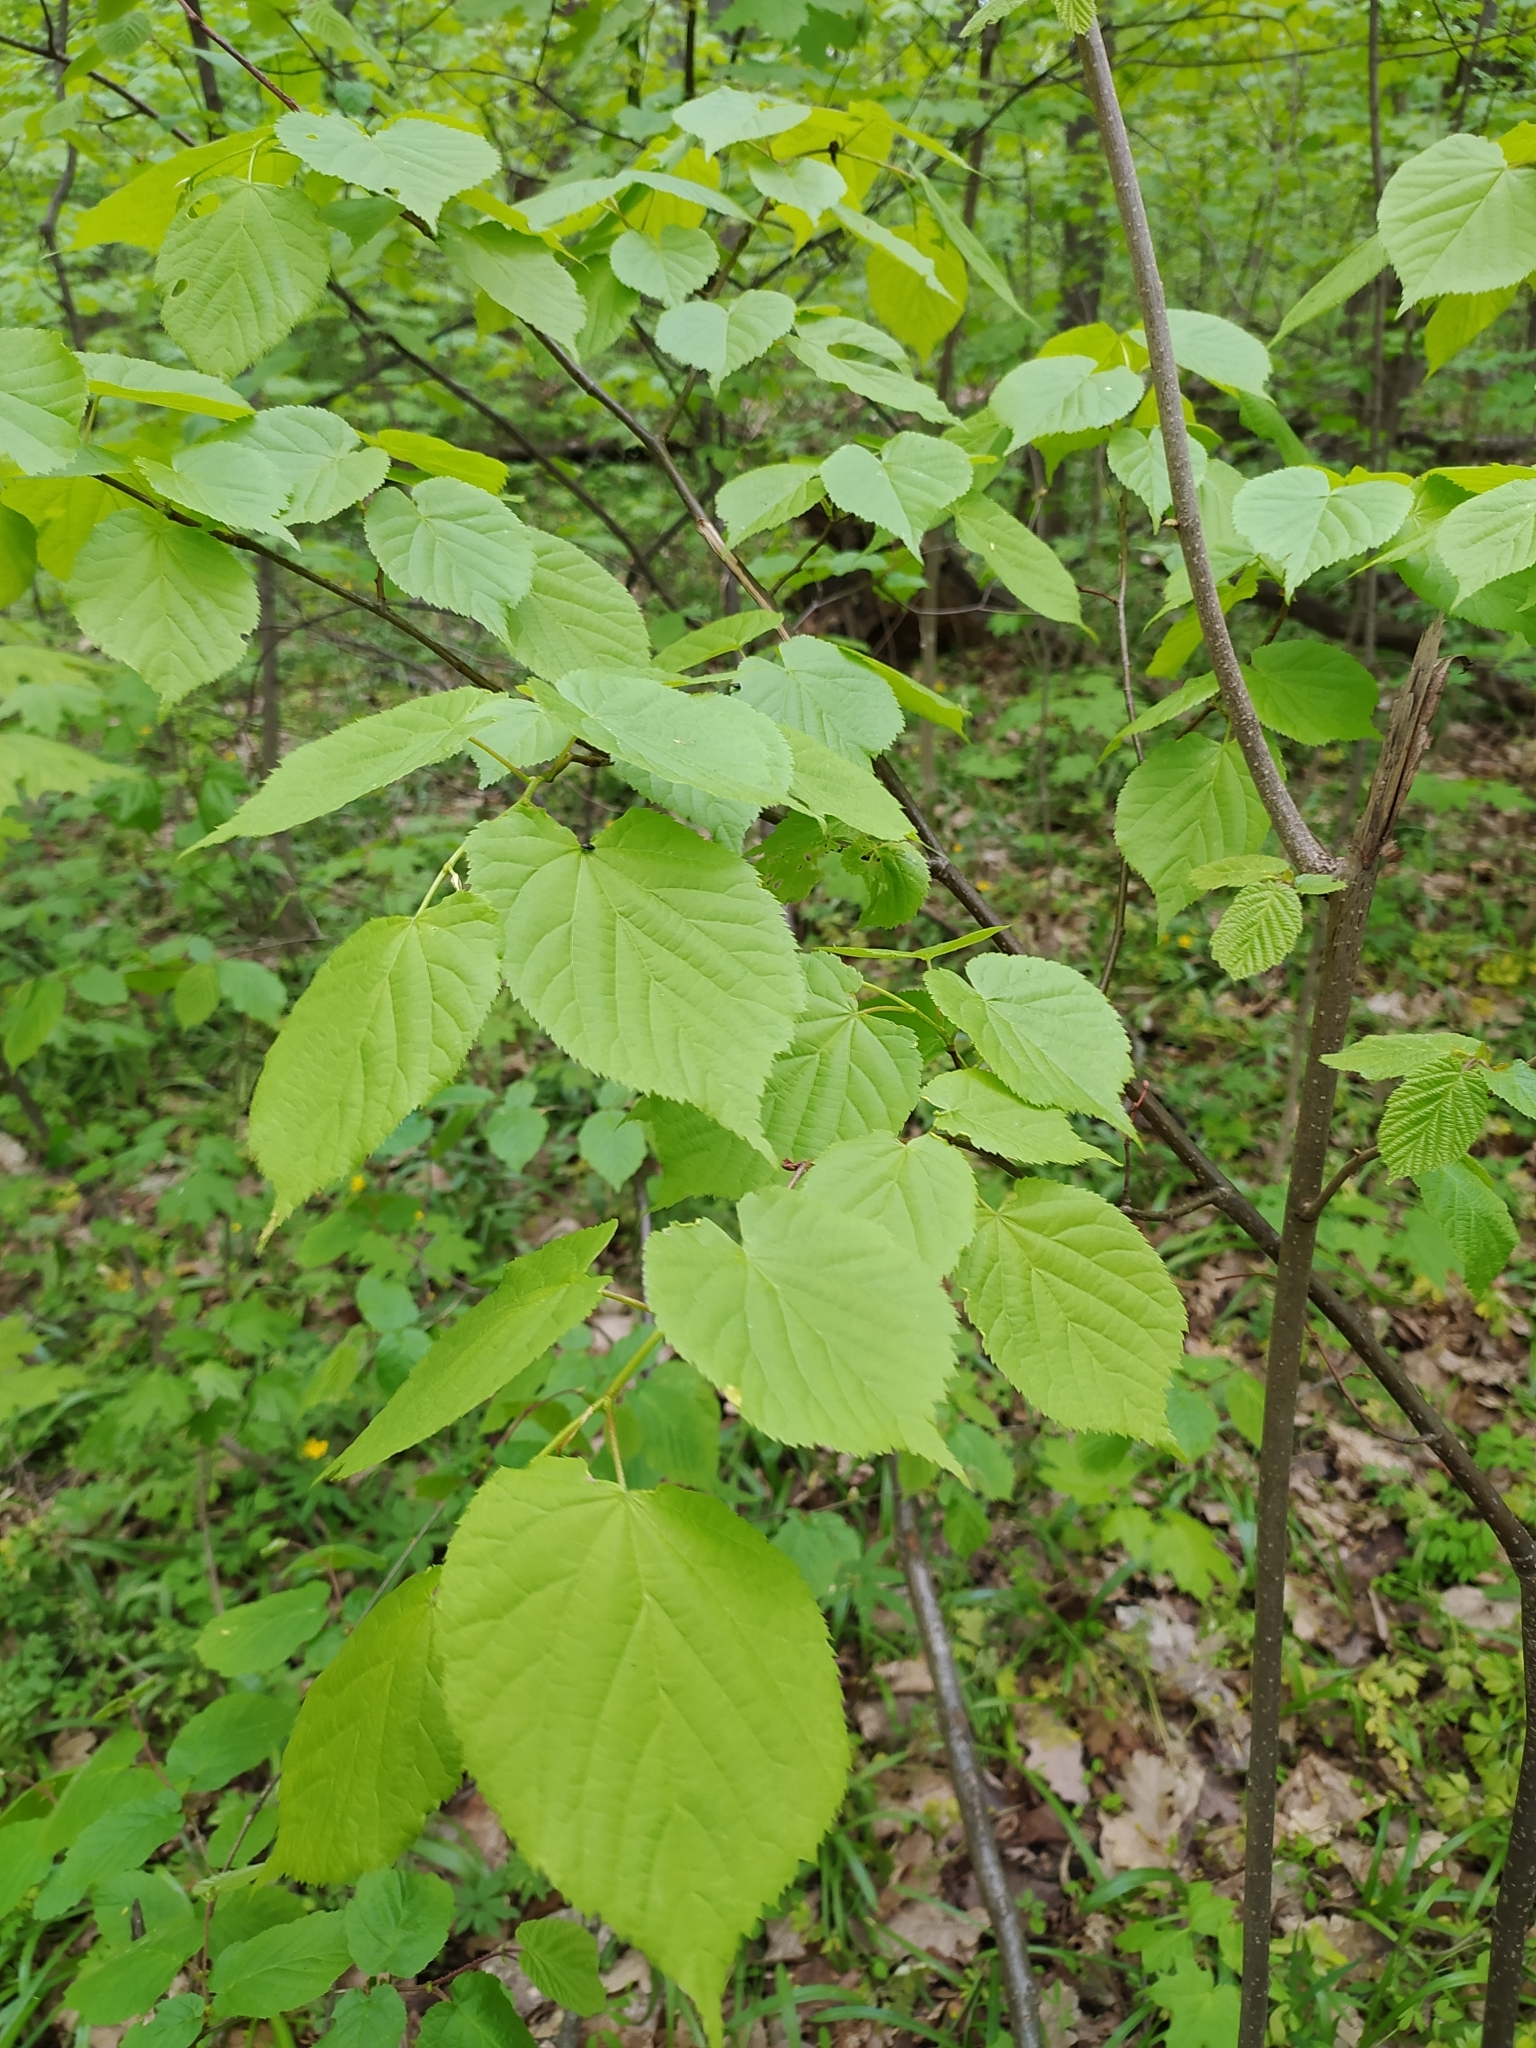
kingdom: Plantae
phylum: Tracheophyta
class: Magnoliopsida
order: Malvales
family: Malvaceae
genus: Tilia
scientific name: Tilia cordata
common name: Small-leaved lime
